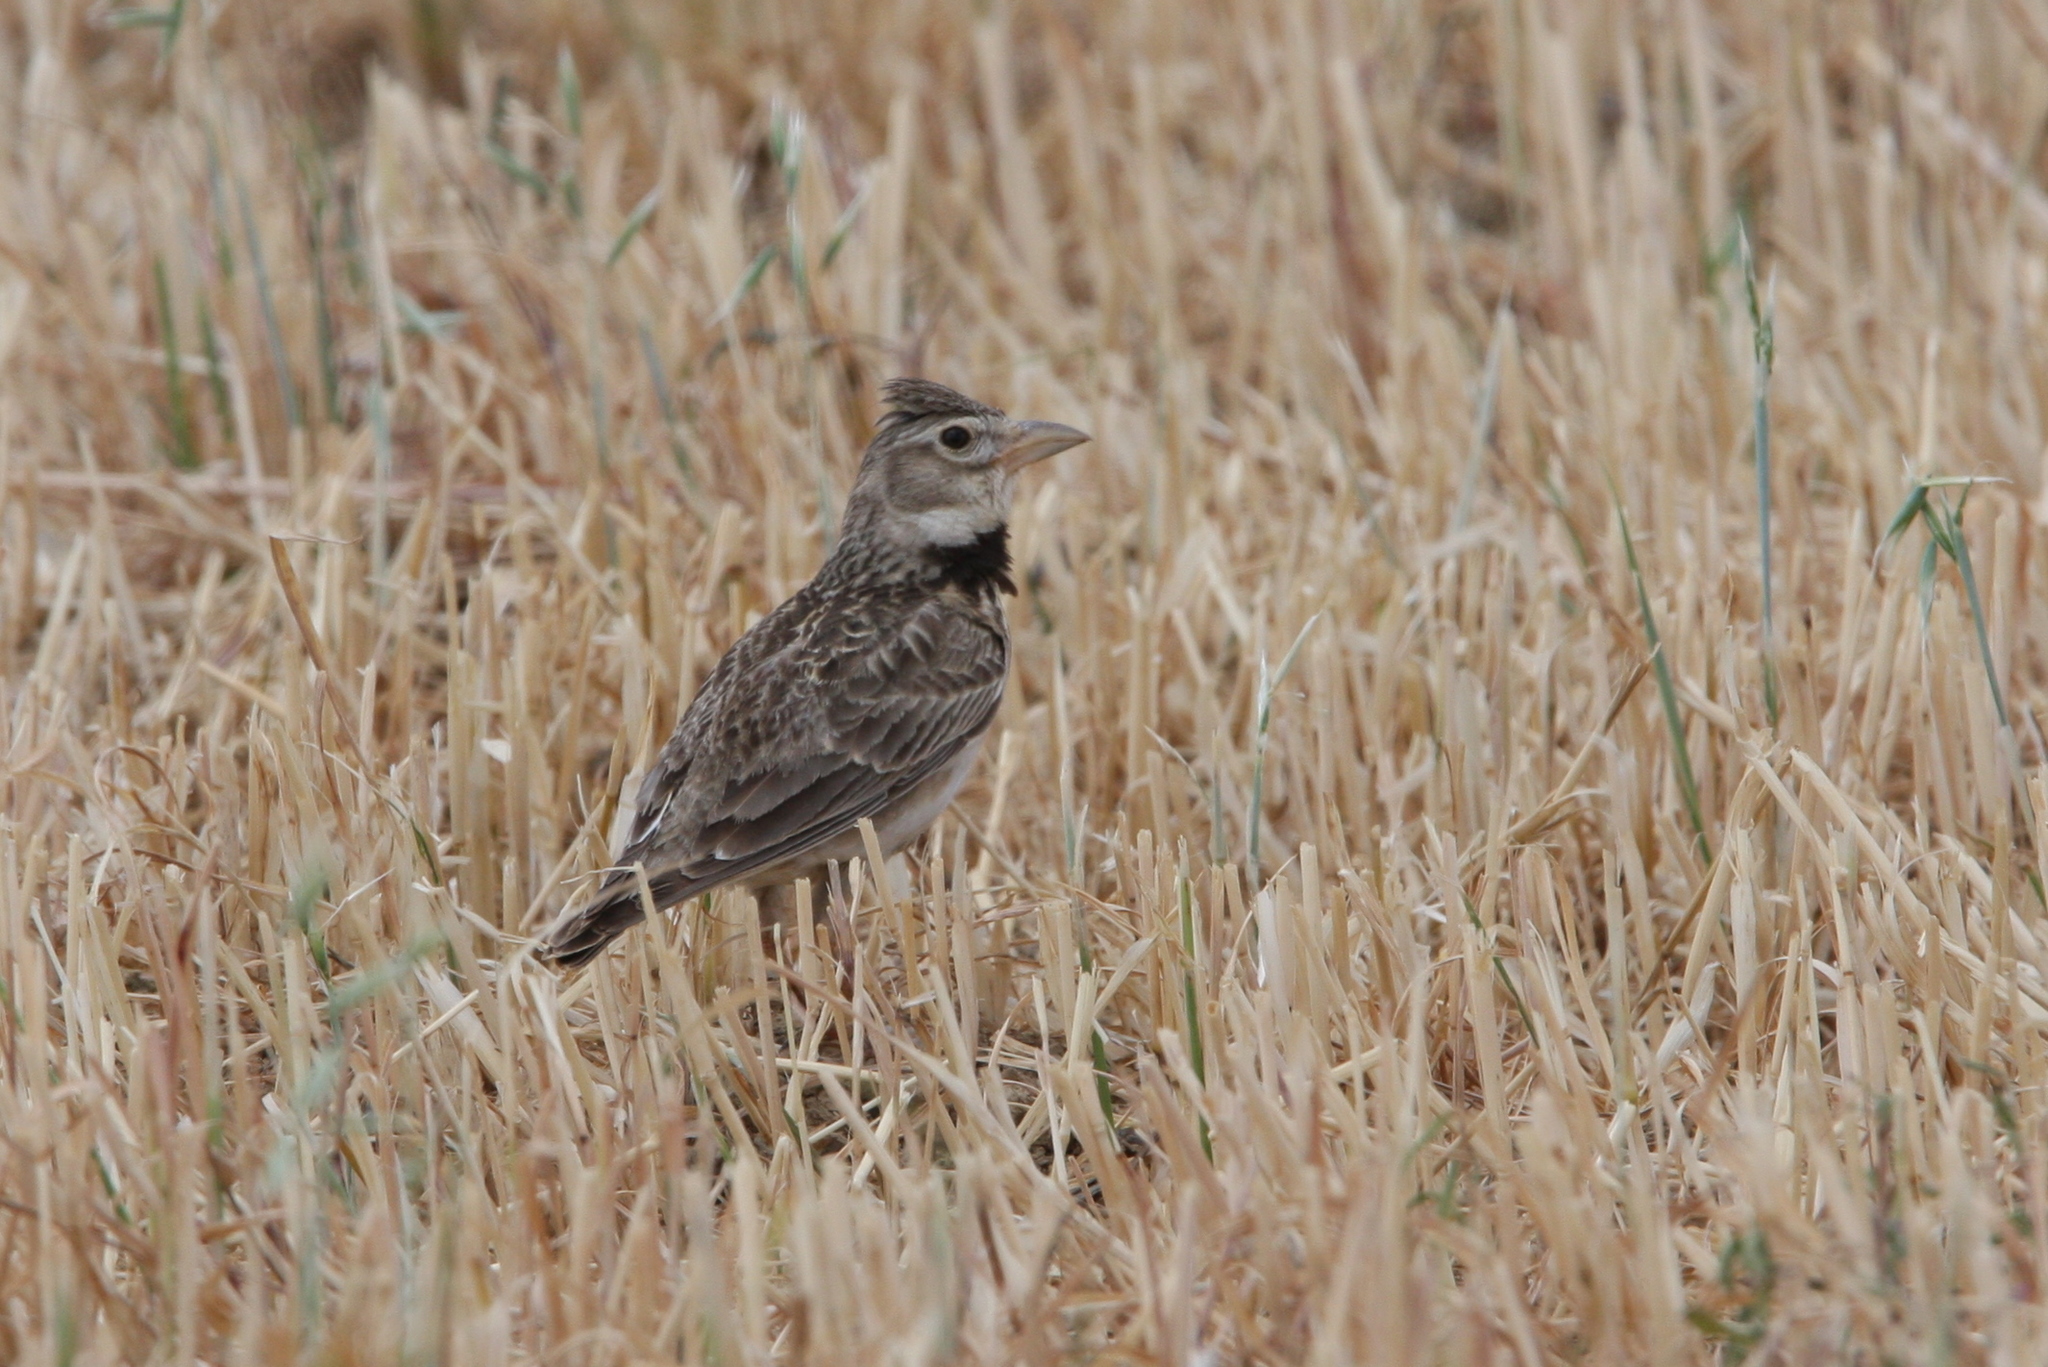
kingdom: Animalia
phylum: Chordata
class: Aves
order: Passeriformes
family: Alaudidae
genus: Melanocorypha
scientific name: Melanocorypha calandra
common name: Calandra lark
